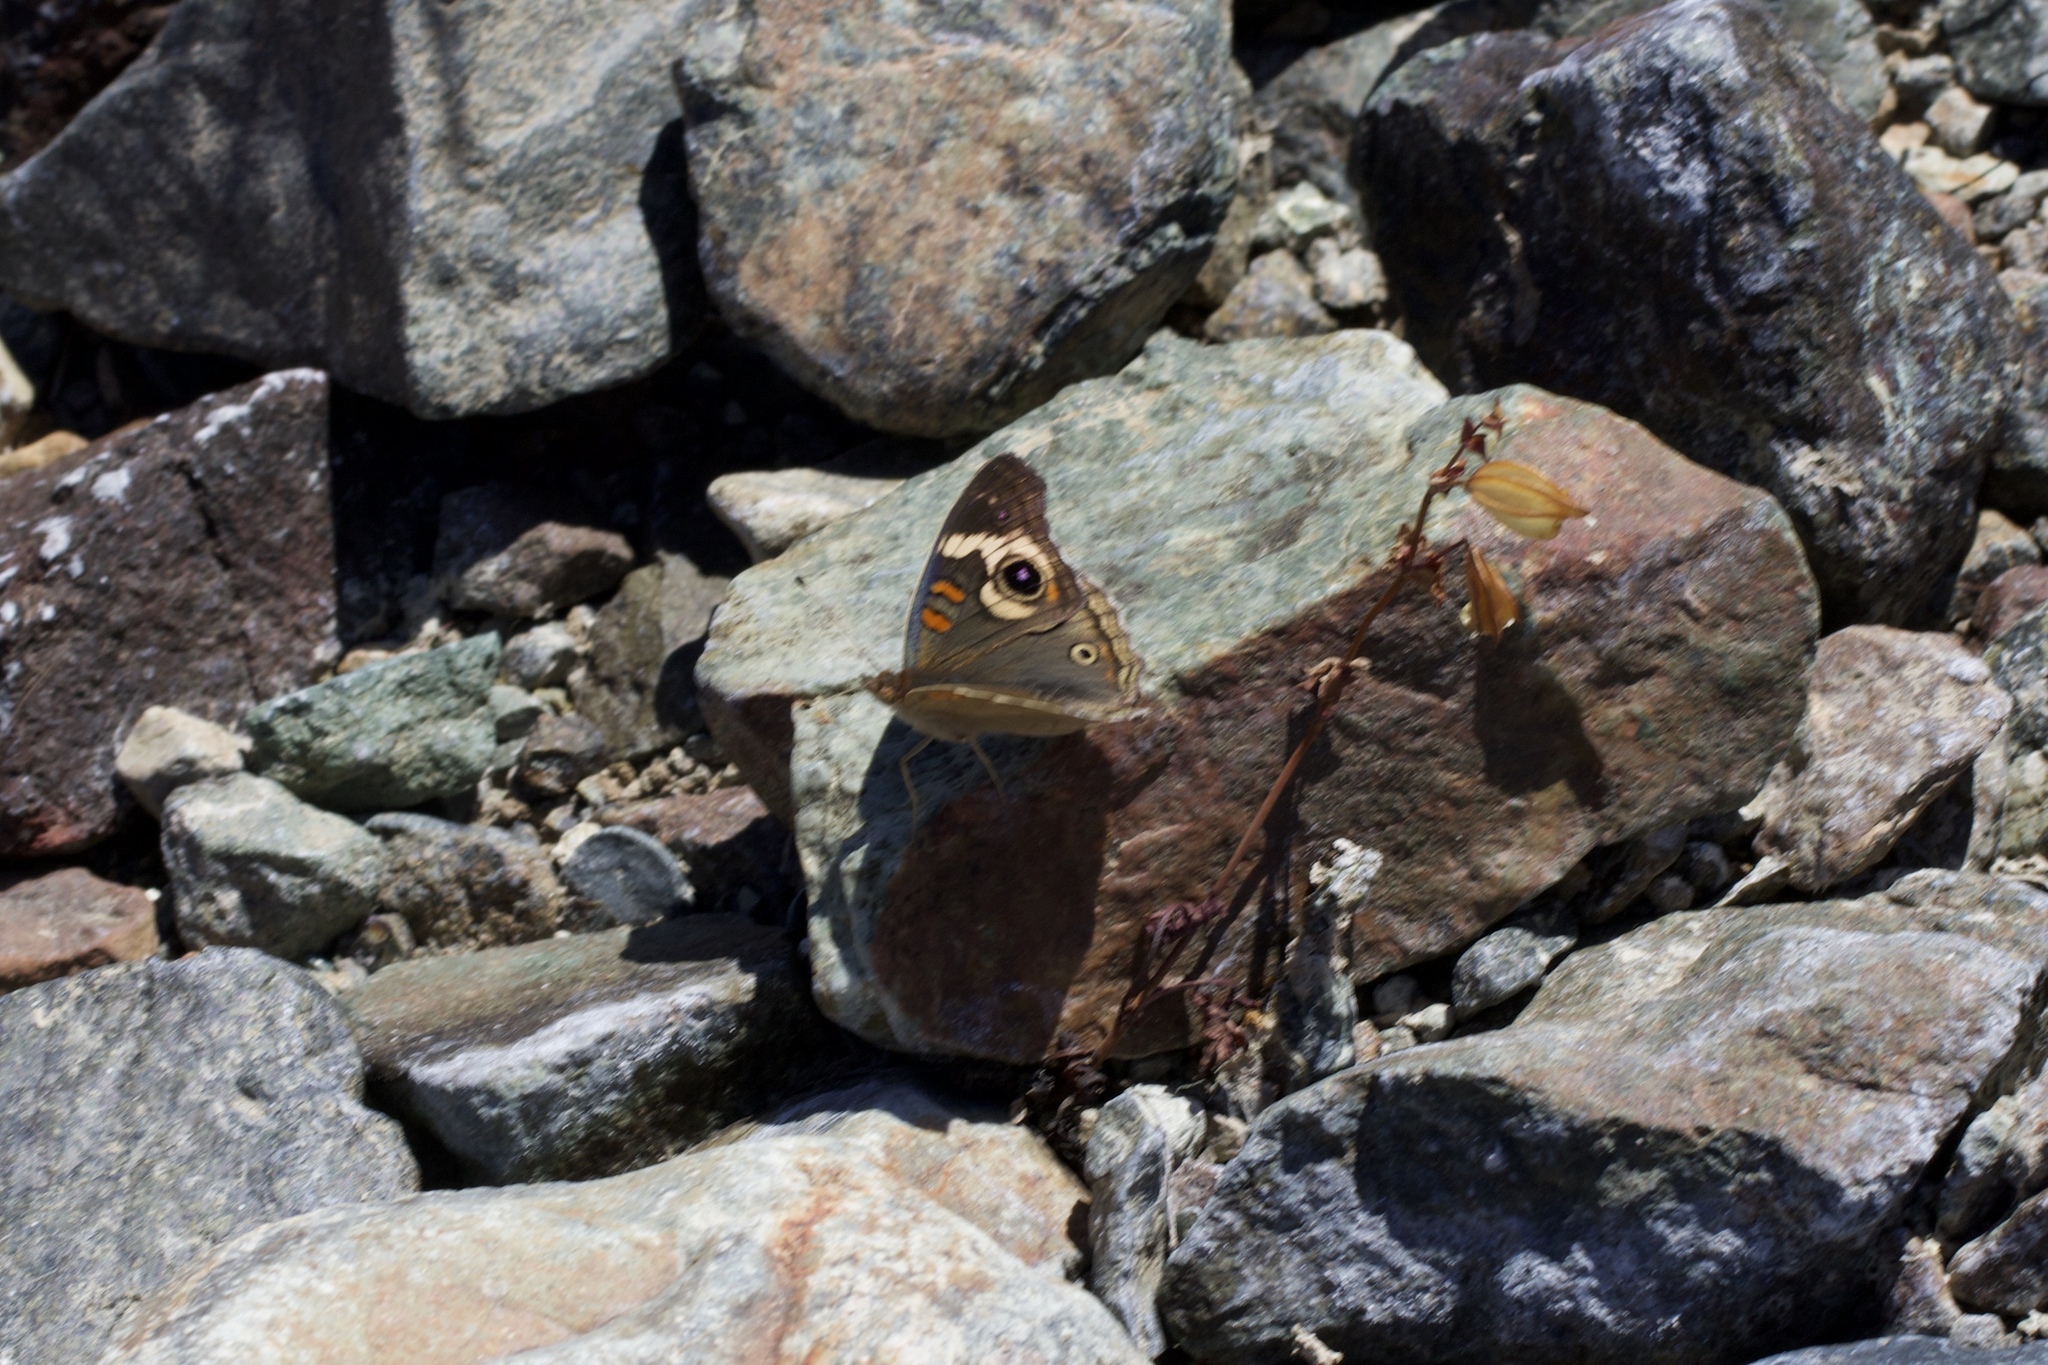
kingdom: Animalia
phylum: Arthropoda
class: Insecta
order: Lepidoptera
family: Nymphalidae
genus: Junonia
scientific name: Junonia grisea
